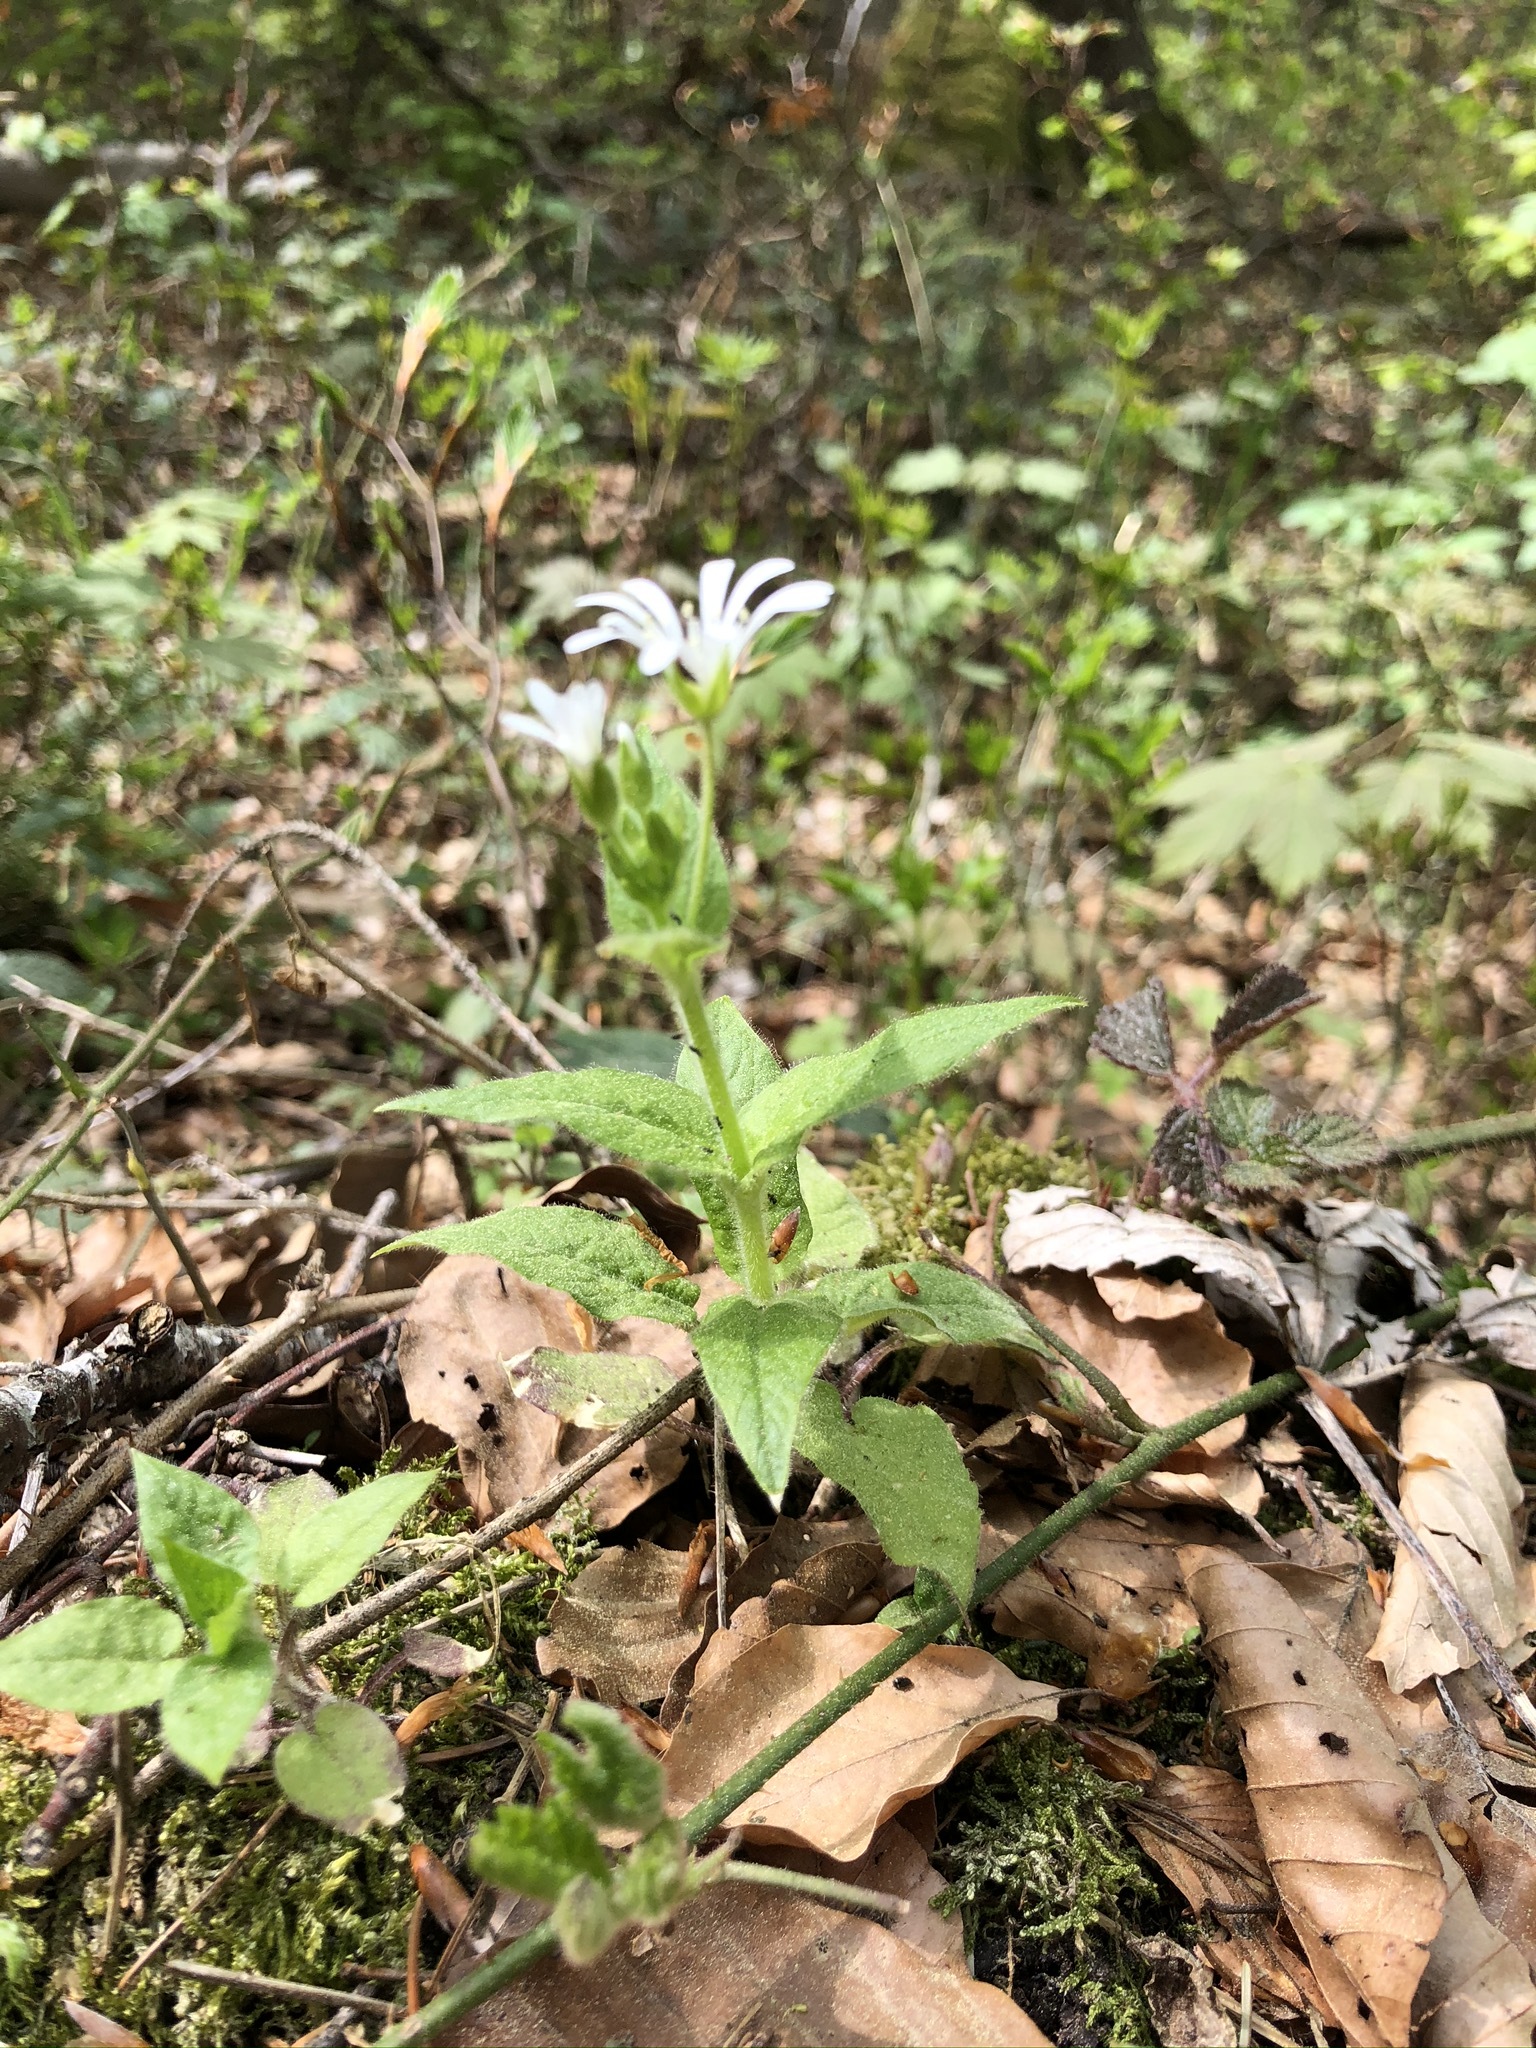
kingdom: Plantae
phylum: Tracheophyta
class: Magnoliopsida
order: Caryophyllales
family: Caryophyllaceae
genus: Stellaria
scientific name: Stellaria nemorum
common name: Wood stitchwort
